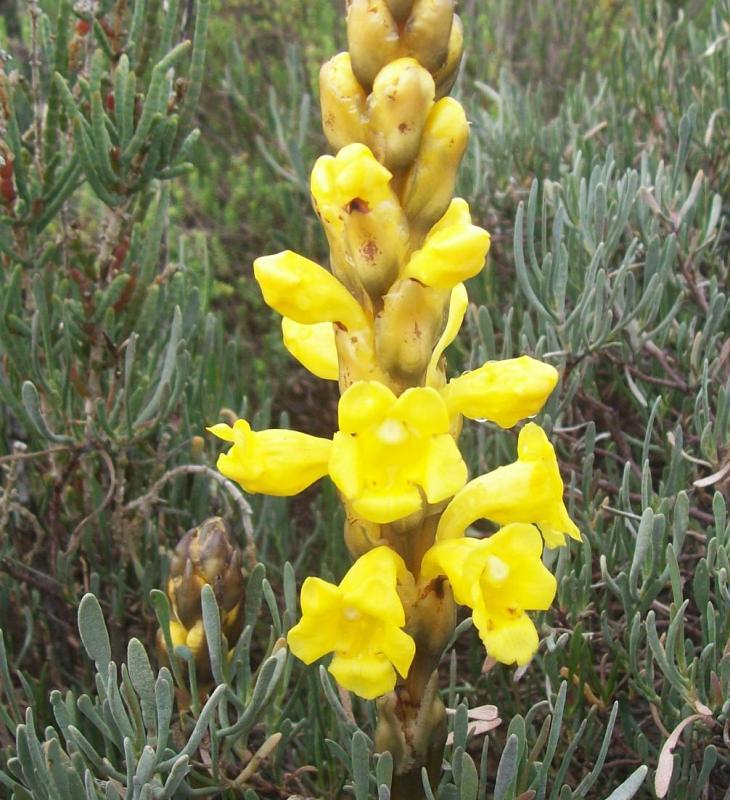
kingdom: Plantae
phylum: Tracheophyta
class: Magnoliopsida
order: Lamiales
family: Orobanchaceae
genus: Cistanche
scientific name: Cistanche phelypaea
